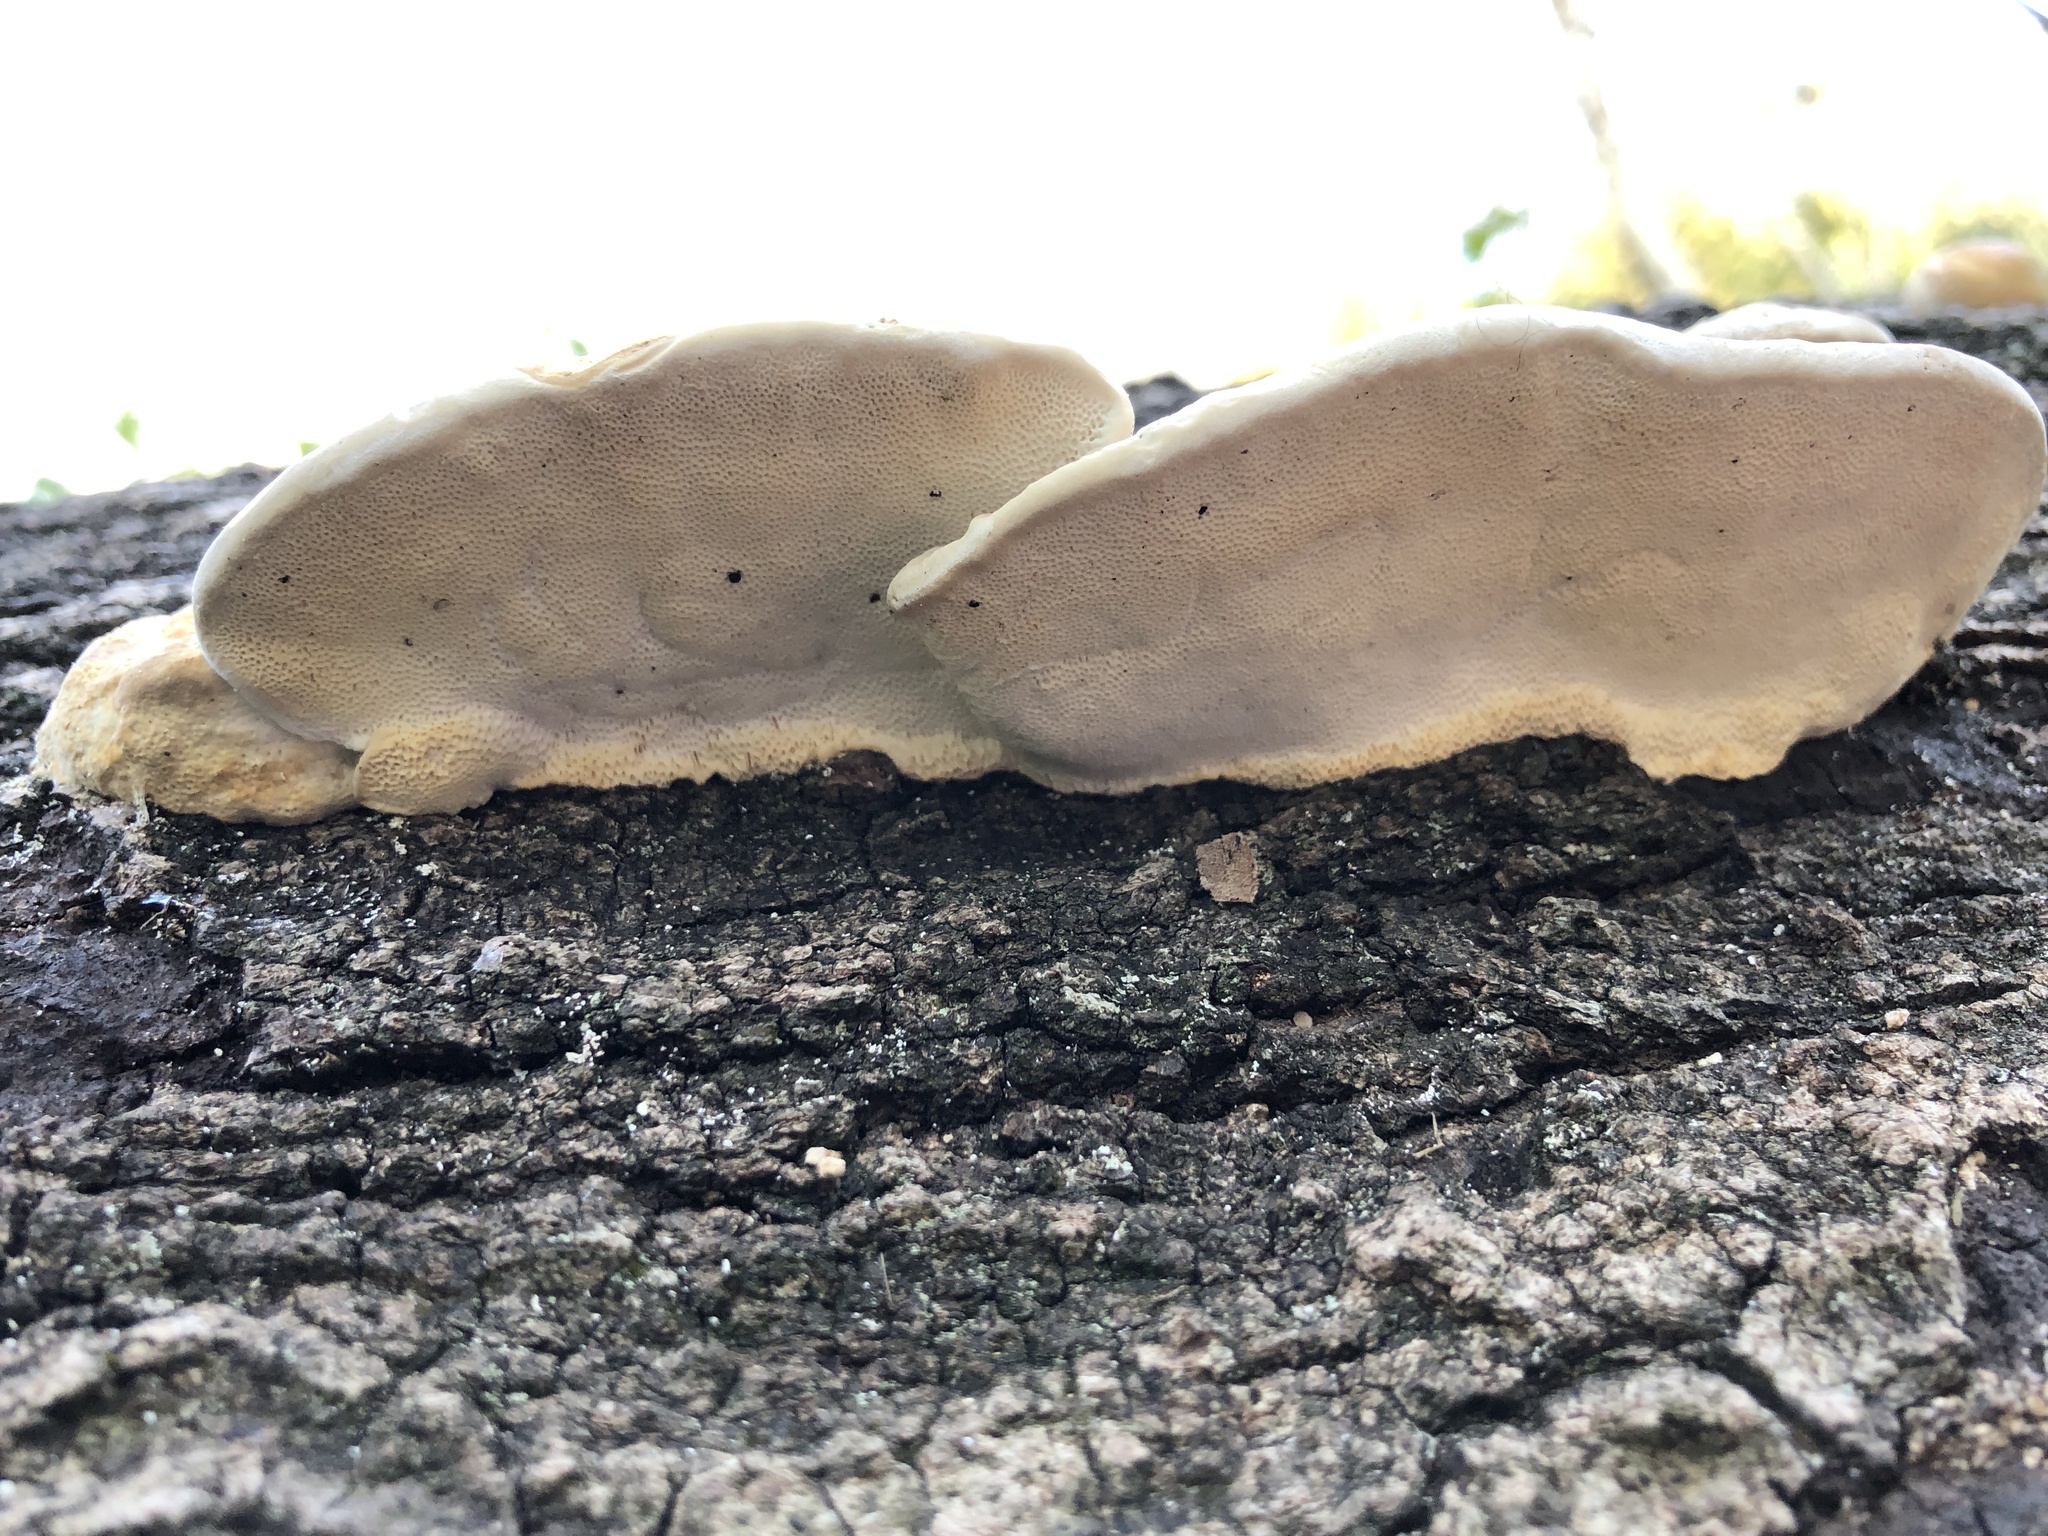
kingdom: Fungi
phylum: Basidiomycota
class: Agaricomycetes
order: Polyporales
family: Polyporaceae
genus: Trametes
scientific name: Trametes lactinea
